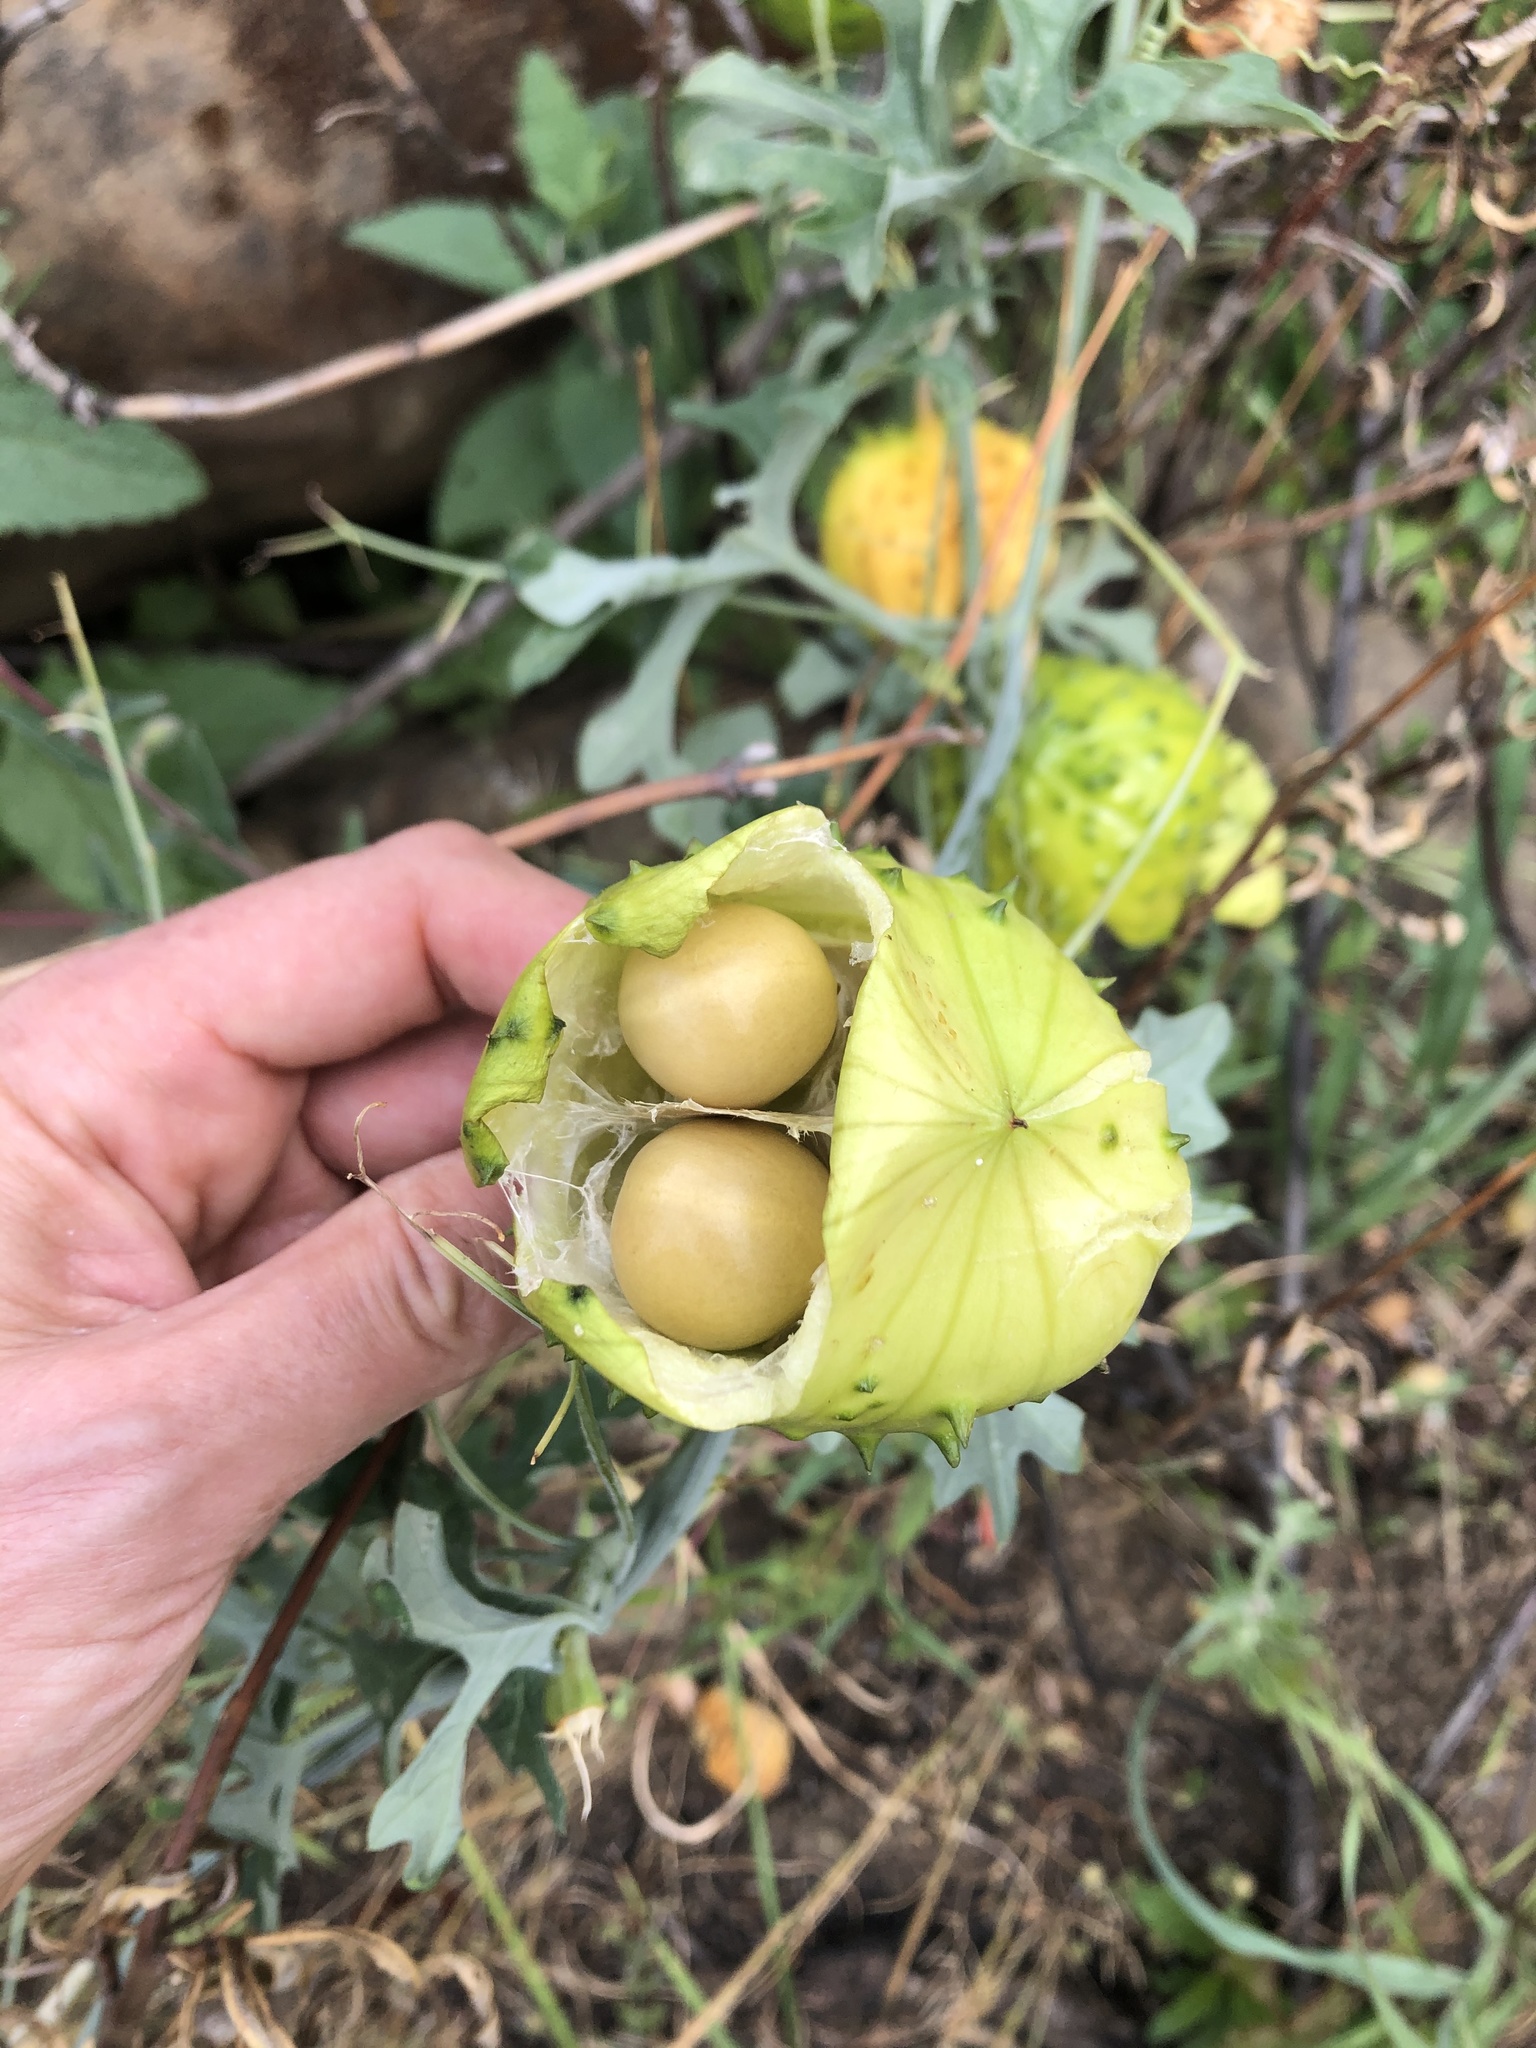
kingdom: Plantae
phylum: Tracheophyta
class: Magnoliopsida
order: Cucurbitales
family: Cucurbitaceae
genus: Marah
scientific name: Marah watsonii
